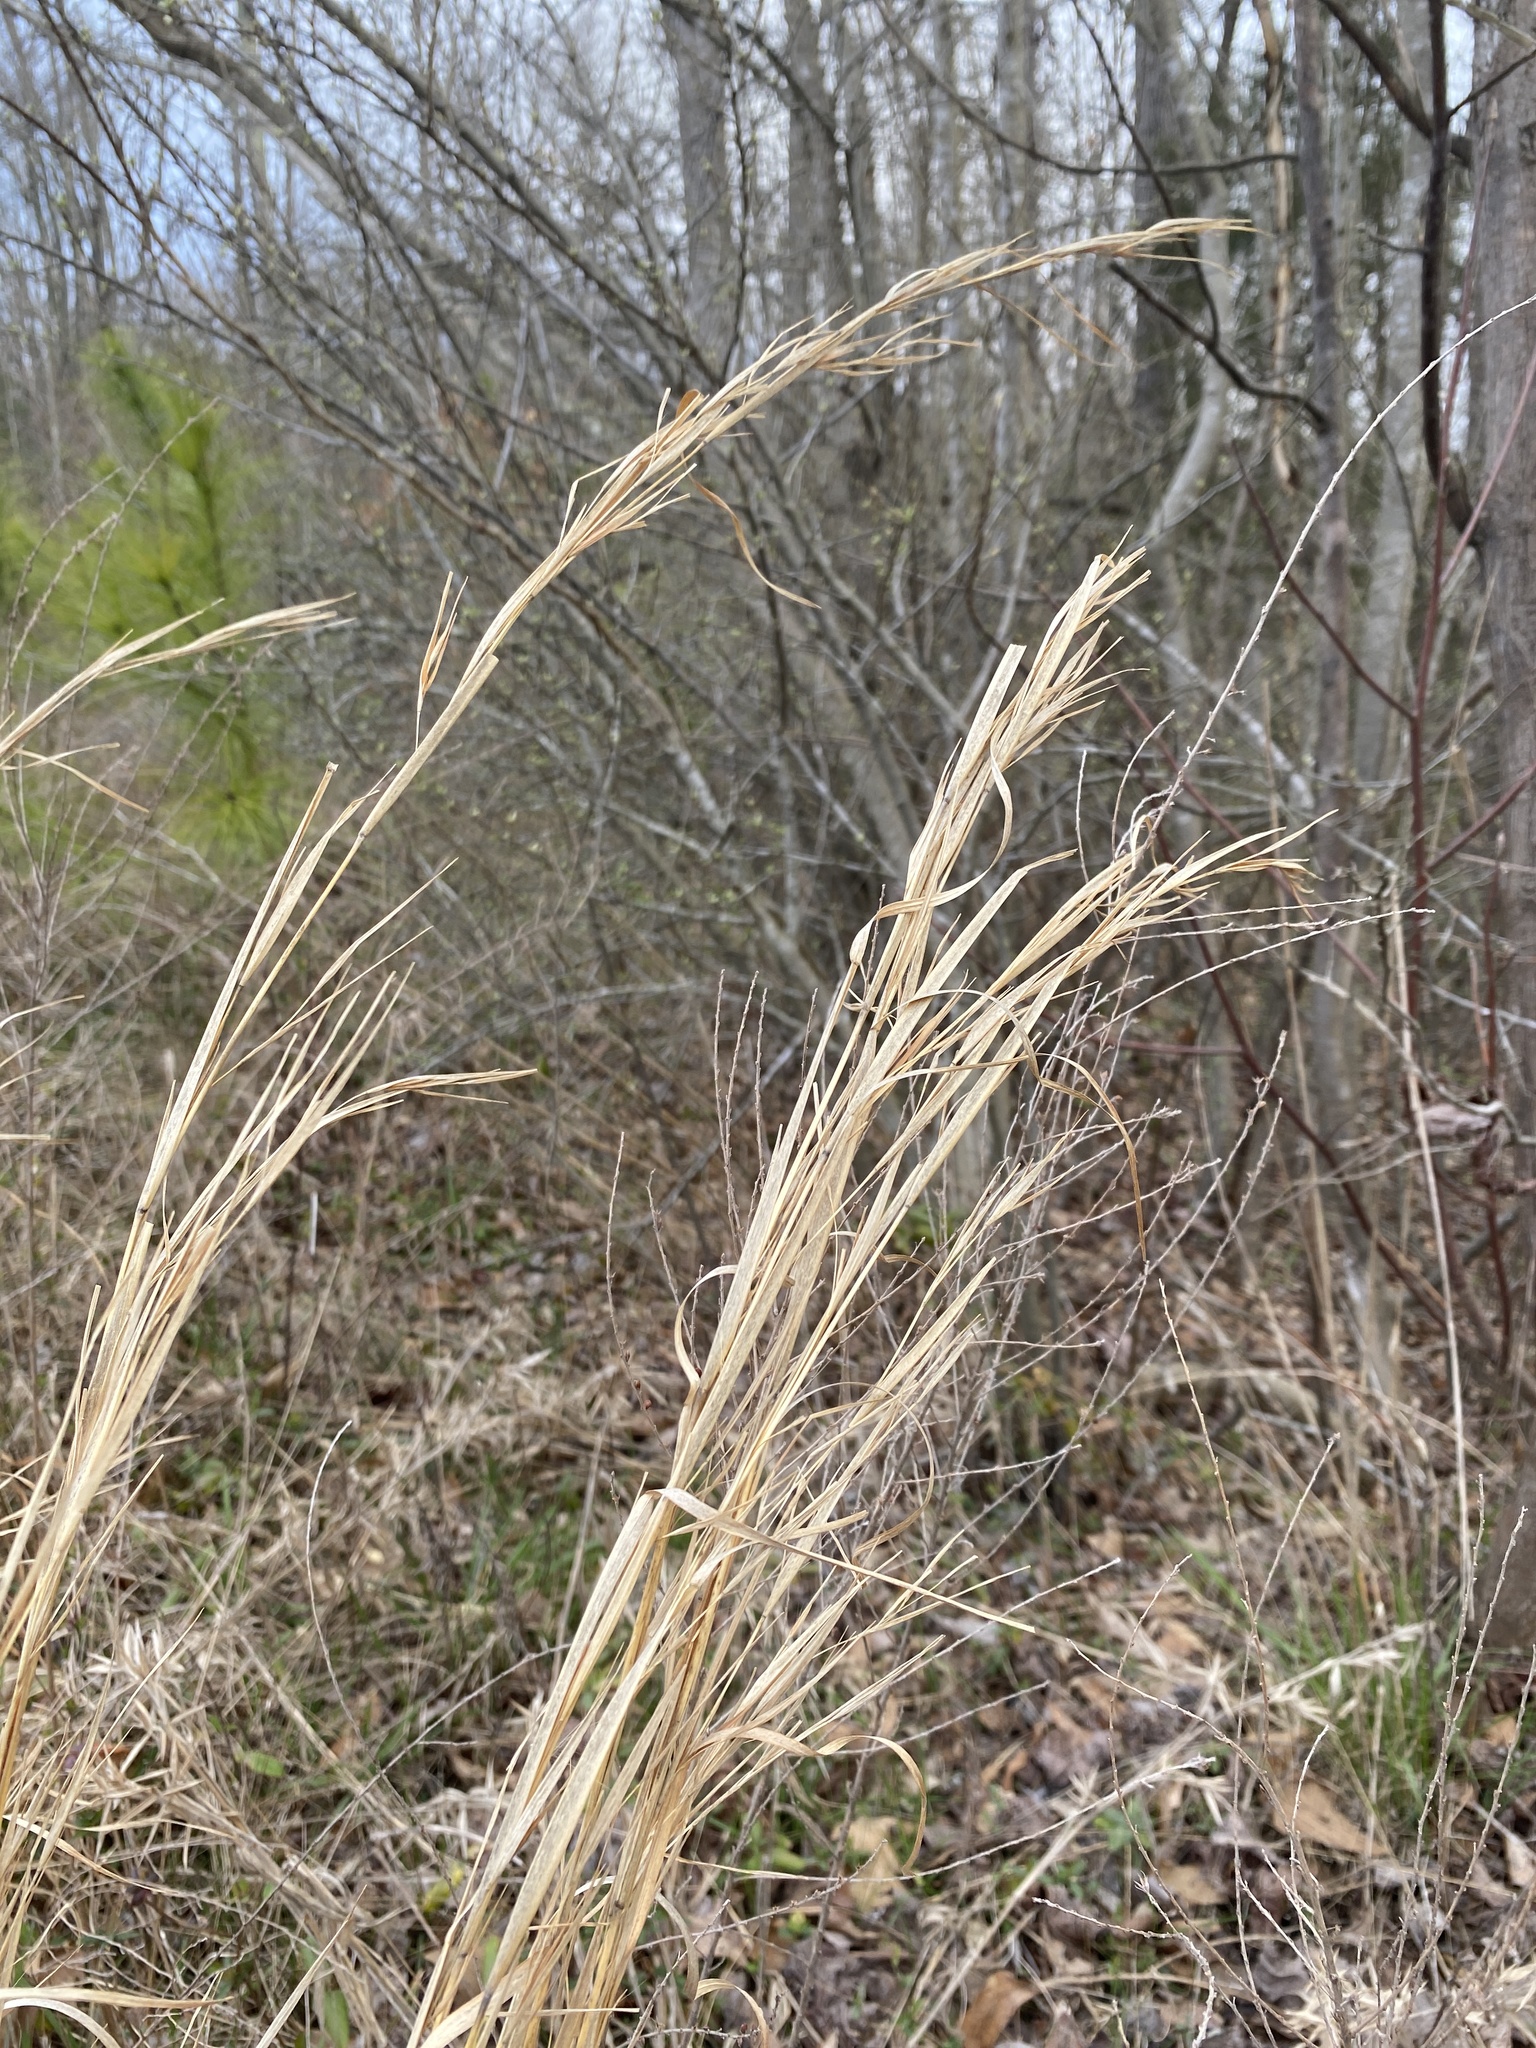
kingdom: Plantae
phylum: Tracheophyta
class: Liliopsida
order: Poales
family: Poaceae
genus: Andropogon
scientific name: Andropogon virginicus
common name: Broomsedge bluestem
